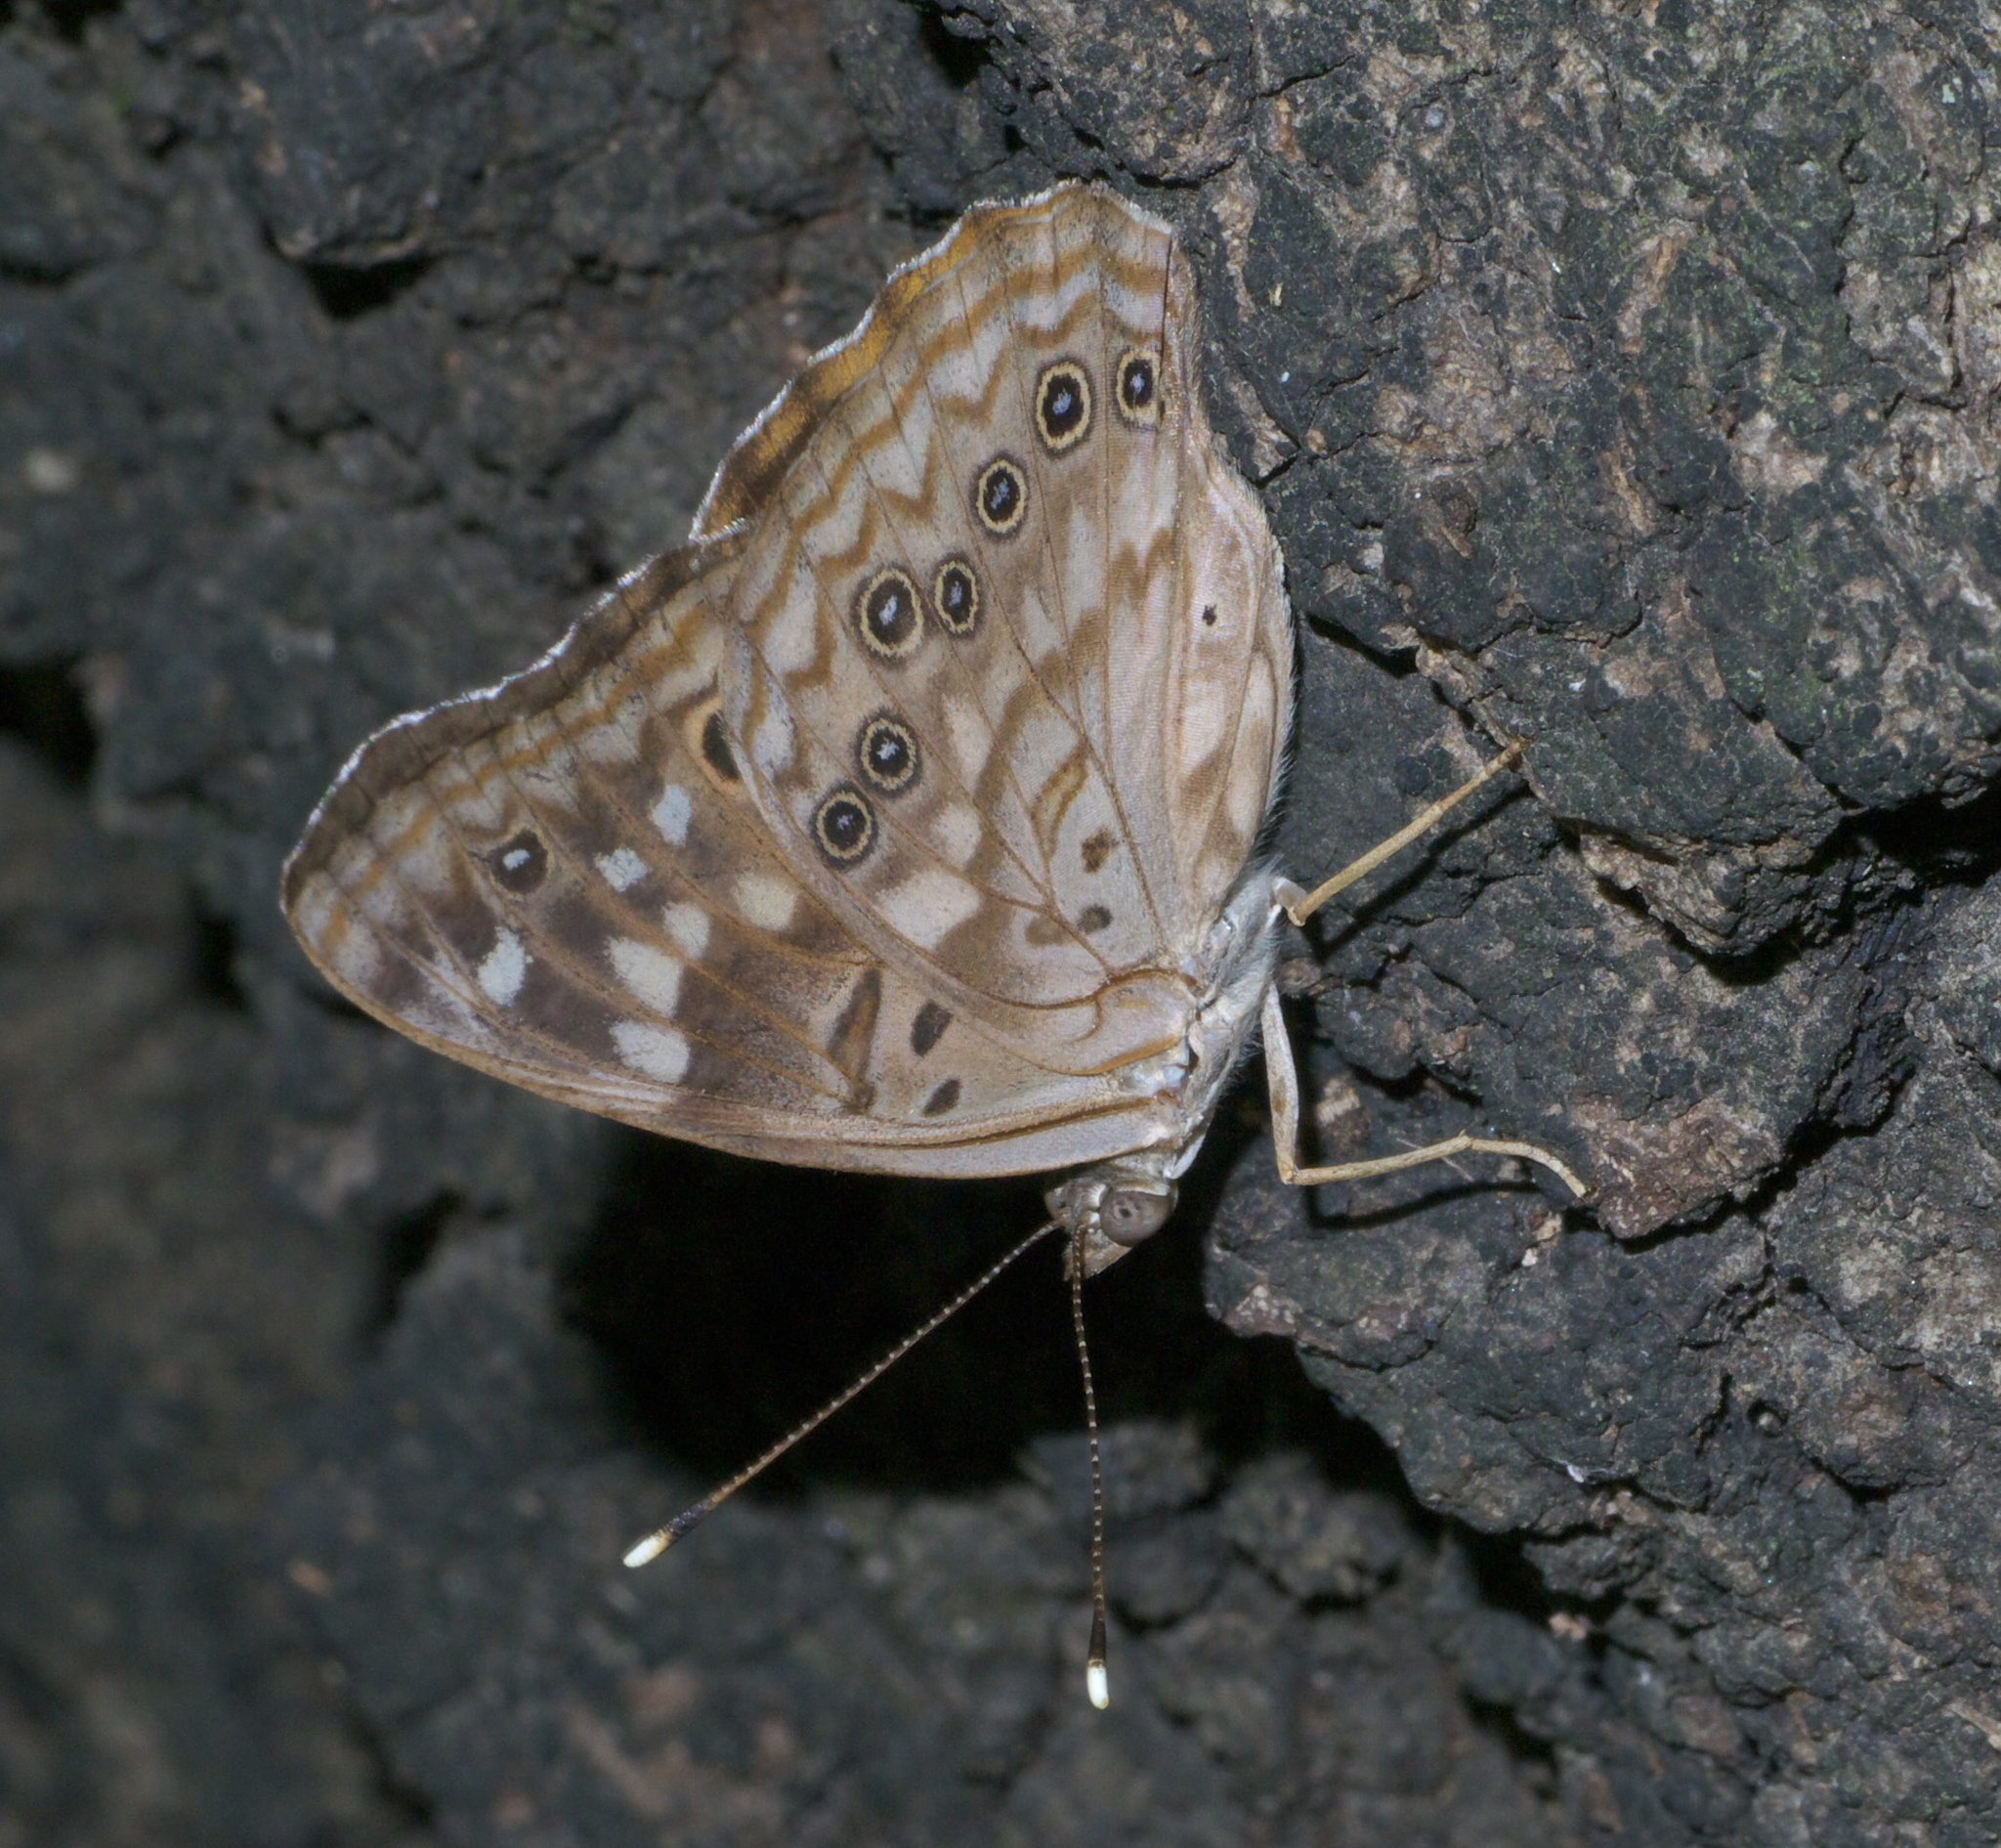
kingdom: Animalia
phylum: Arthropoda
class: Insecta
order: Lepidoptera
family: Nymphalidae
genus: Asterocampa
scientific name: Asterocampa celtis
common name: Hackberry emperor
